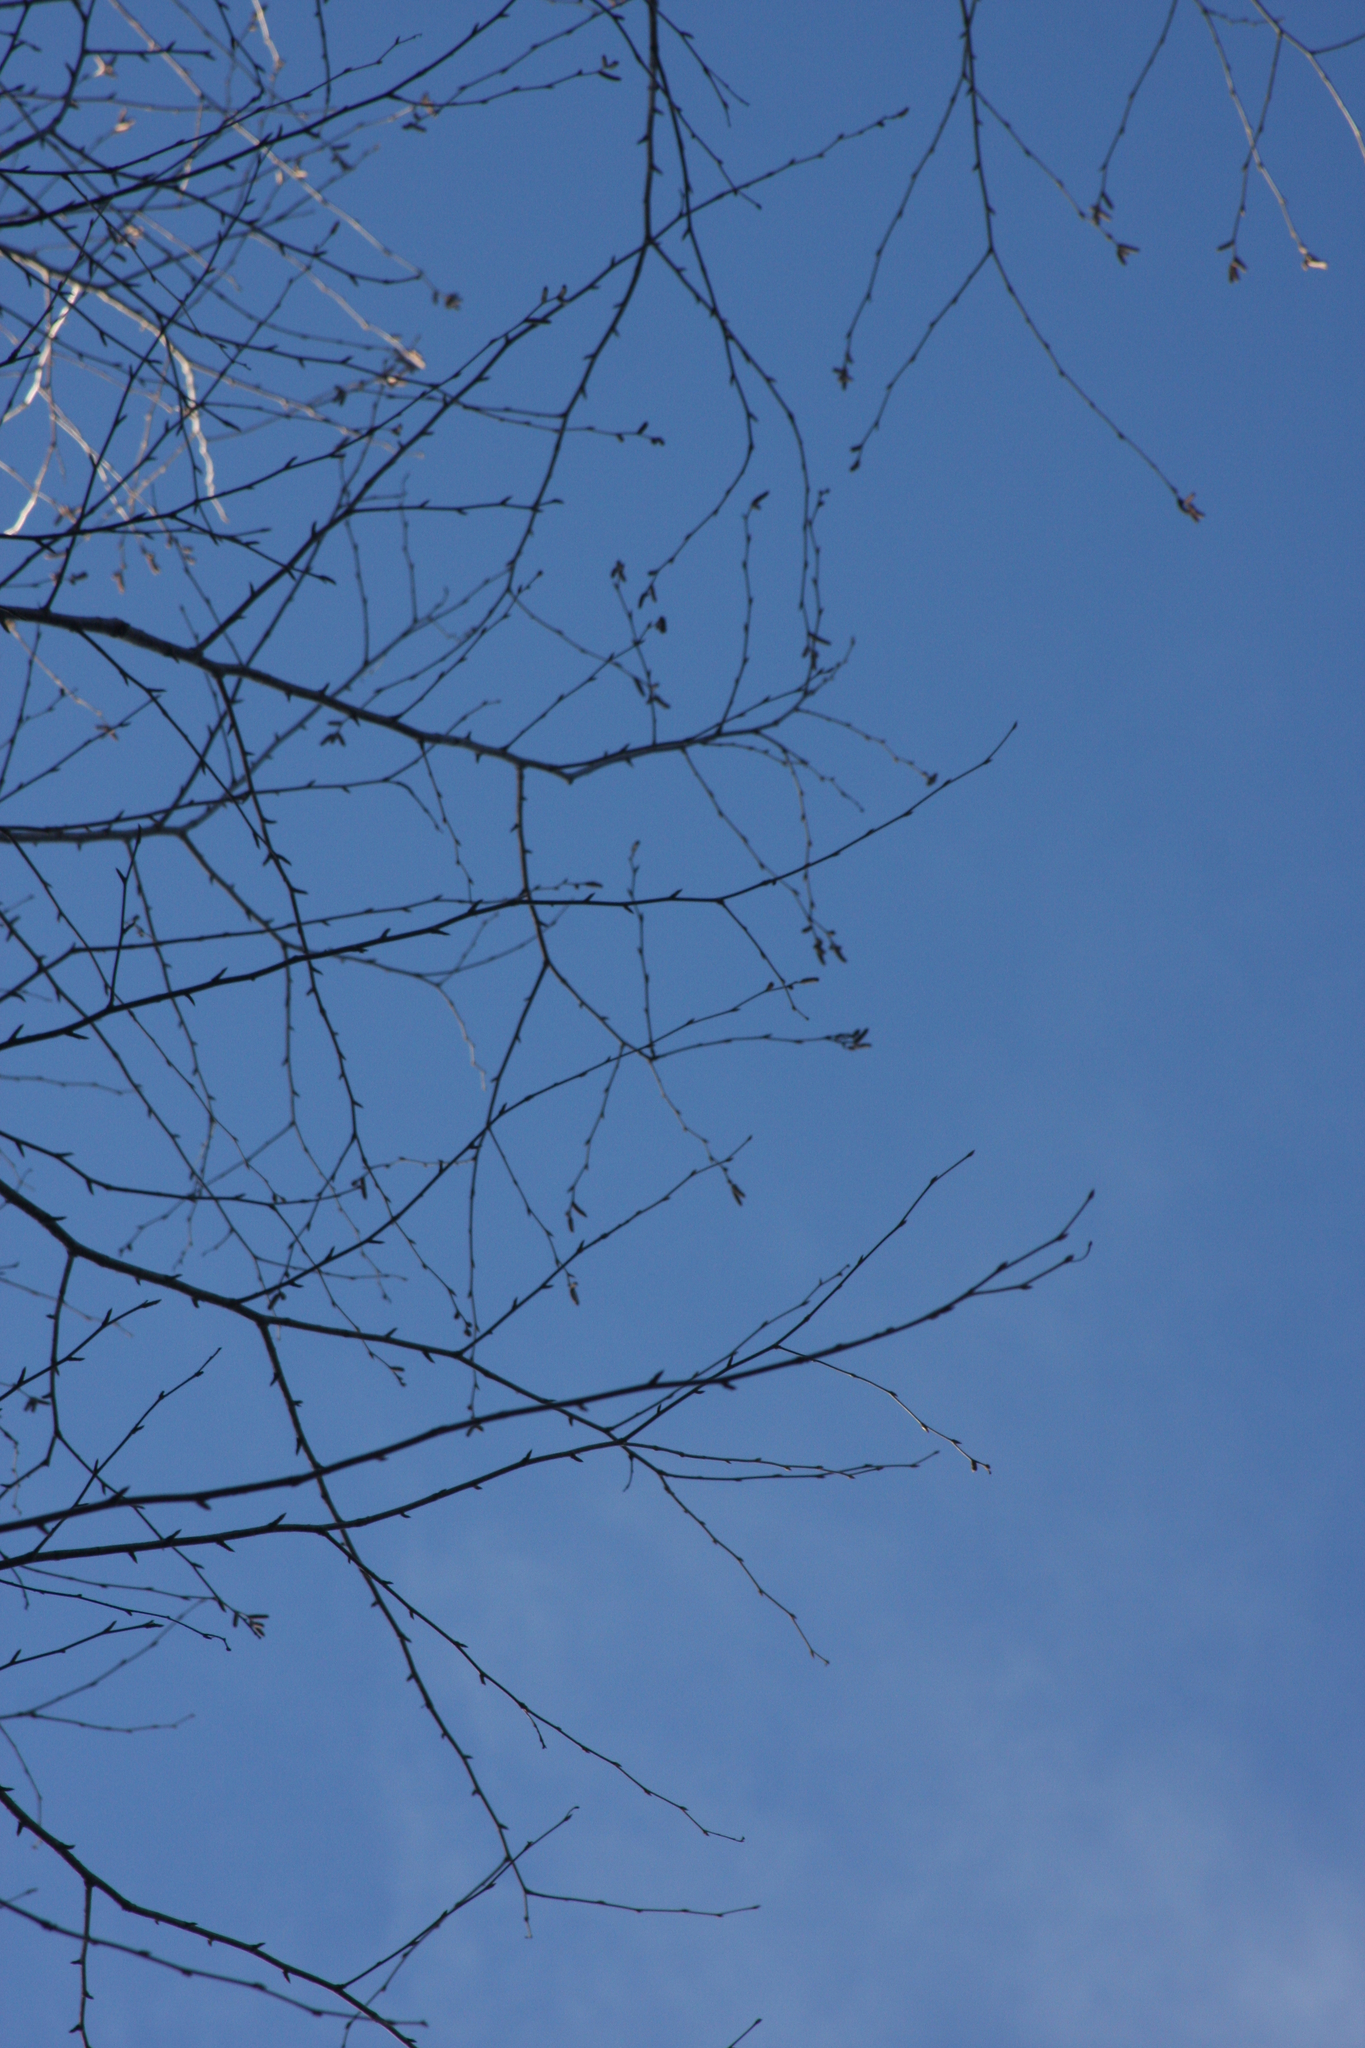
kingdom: Plantae
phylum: Tracheophyta
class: Magnoliopsida
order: Fagales
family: Betulaceae
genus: Betula
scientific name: Betula alleghaniensis
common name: Yellow birch
